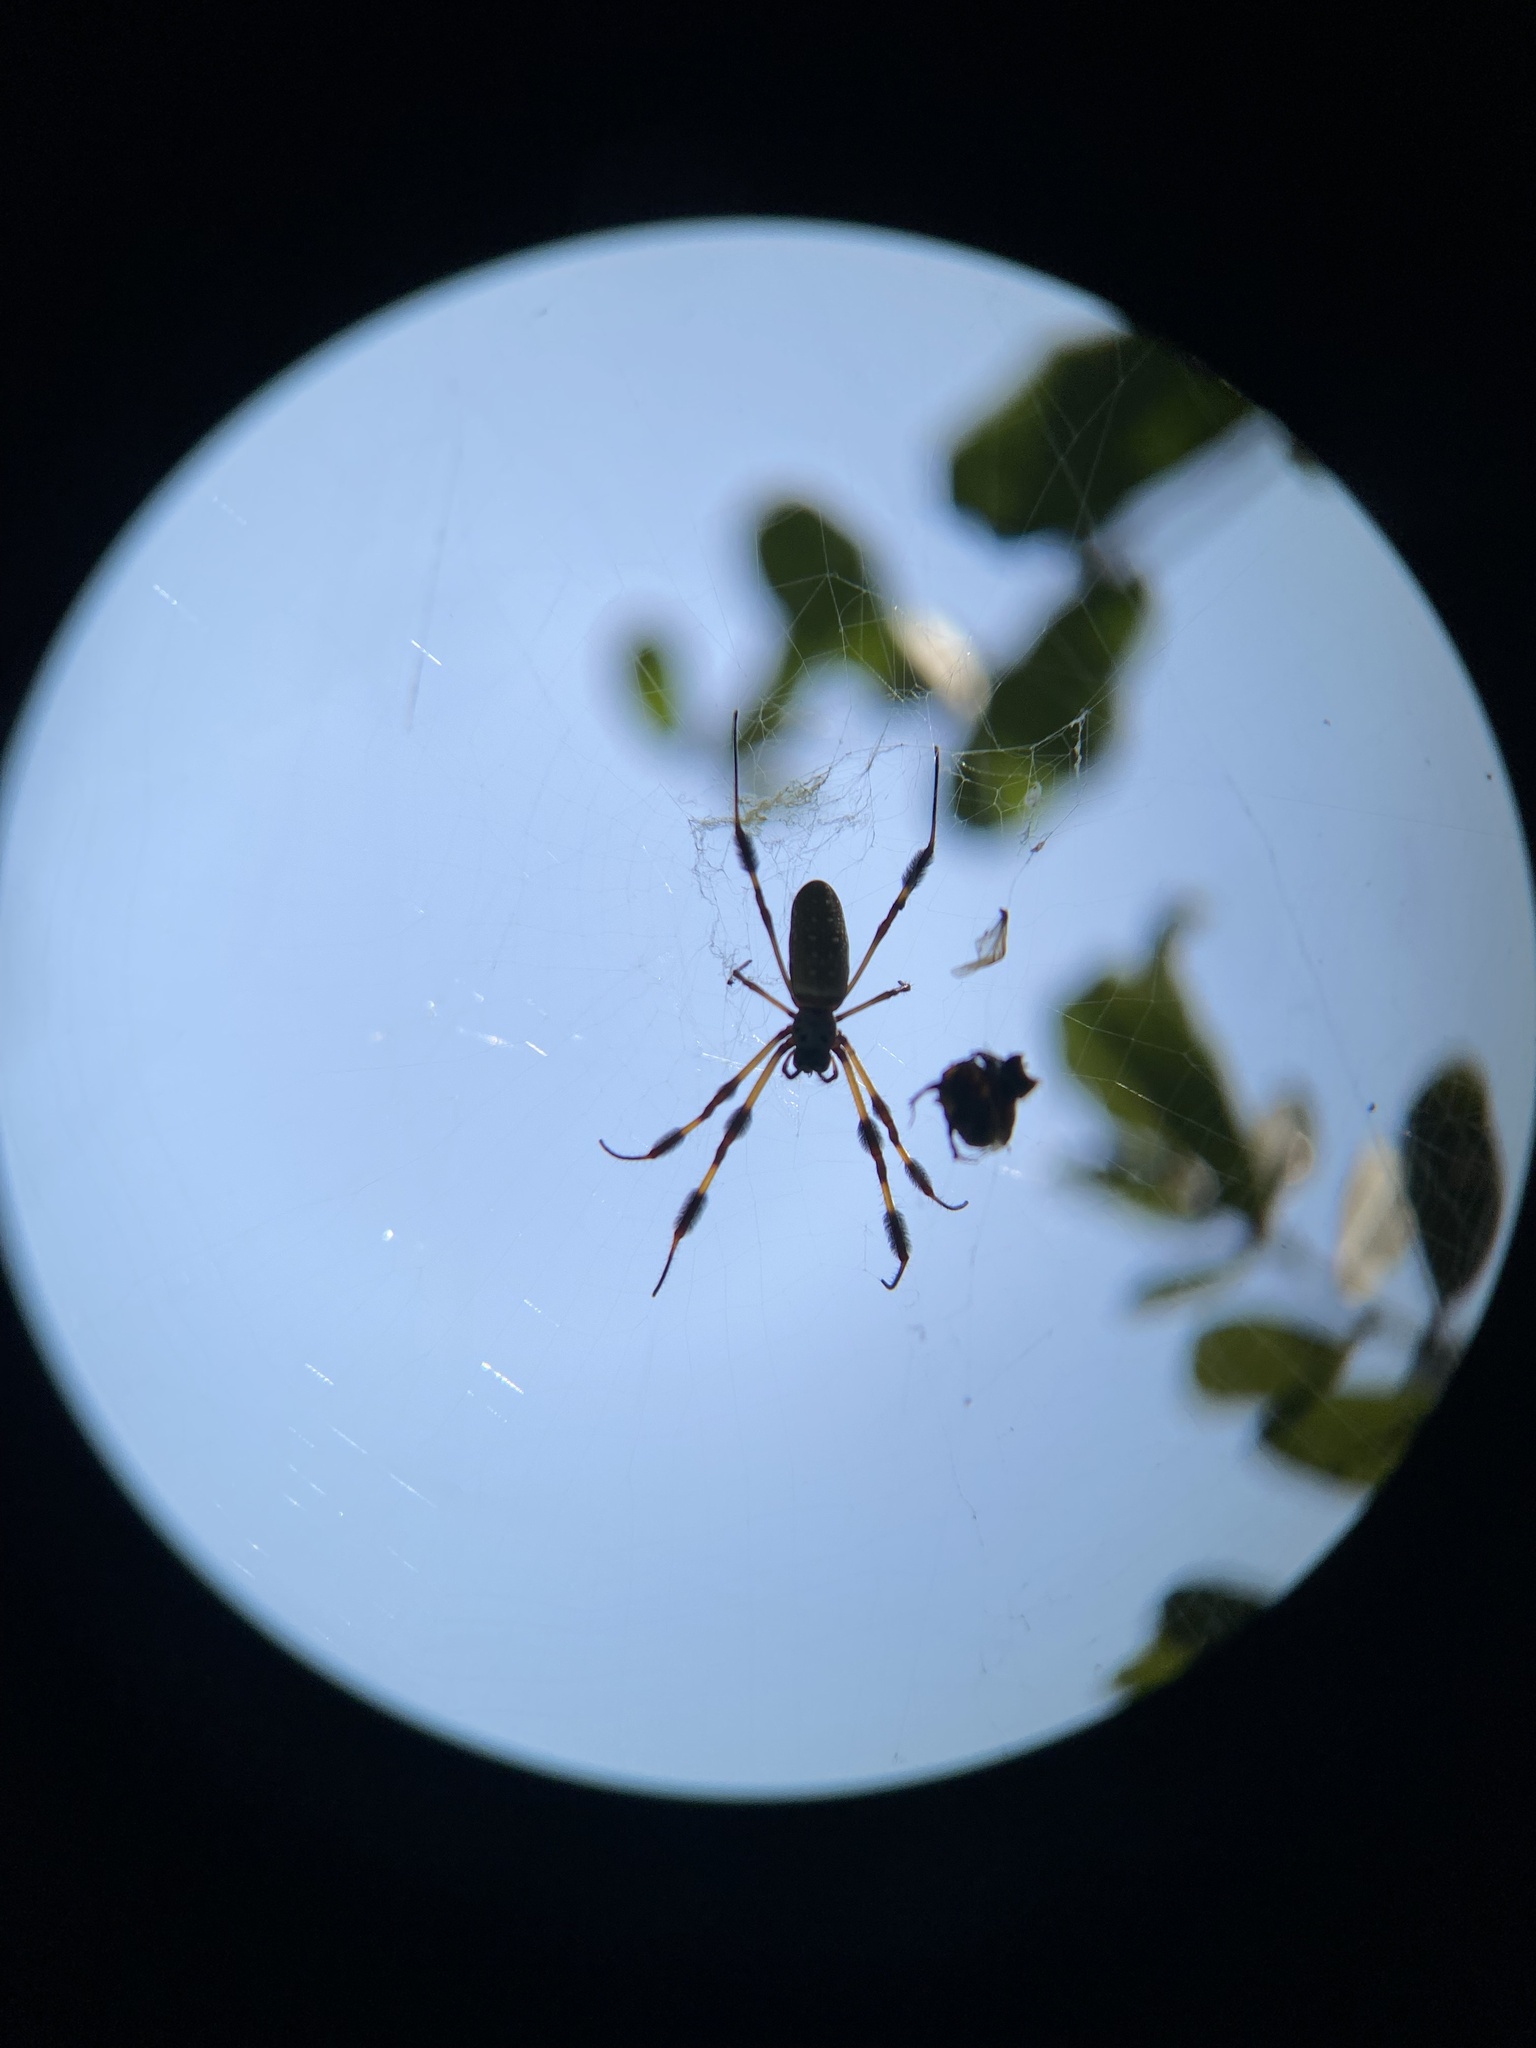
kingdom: Animalia
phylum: Arthropoda
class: Arachnida
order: Araneae
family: Araneidae
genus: Trichonephila
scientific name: Trichonephila clavipes
